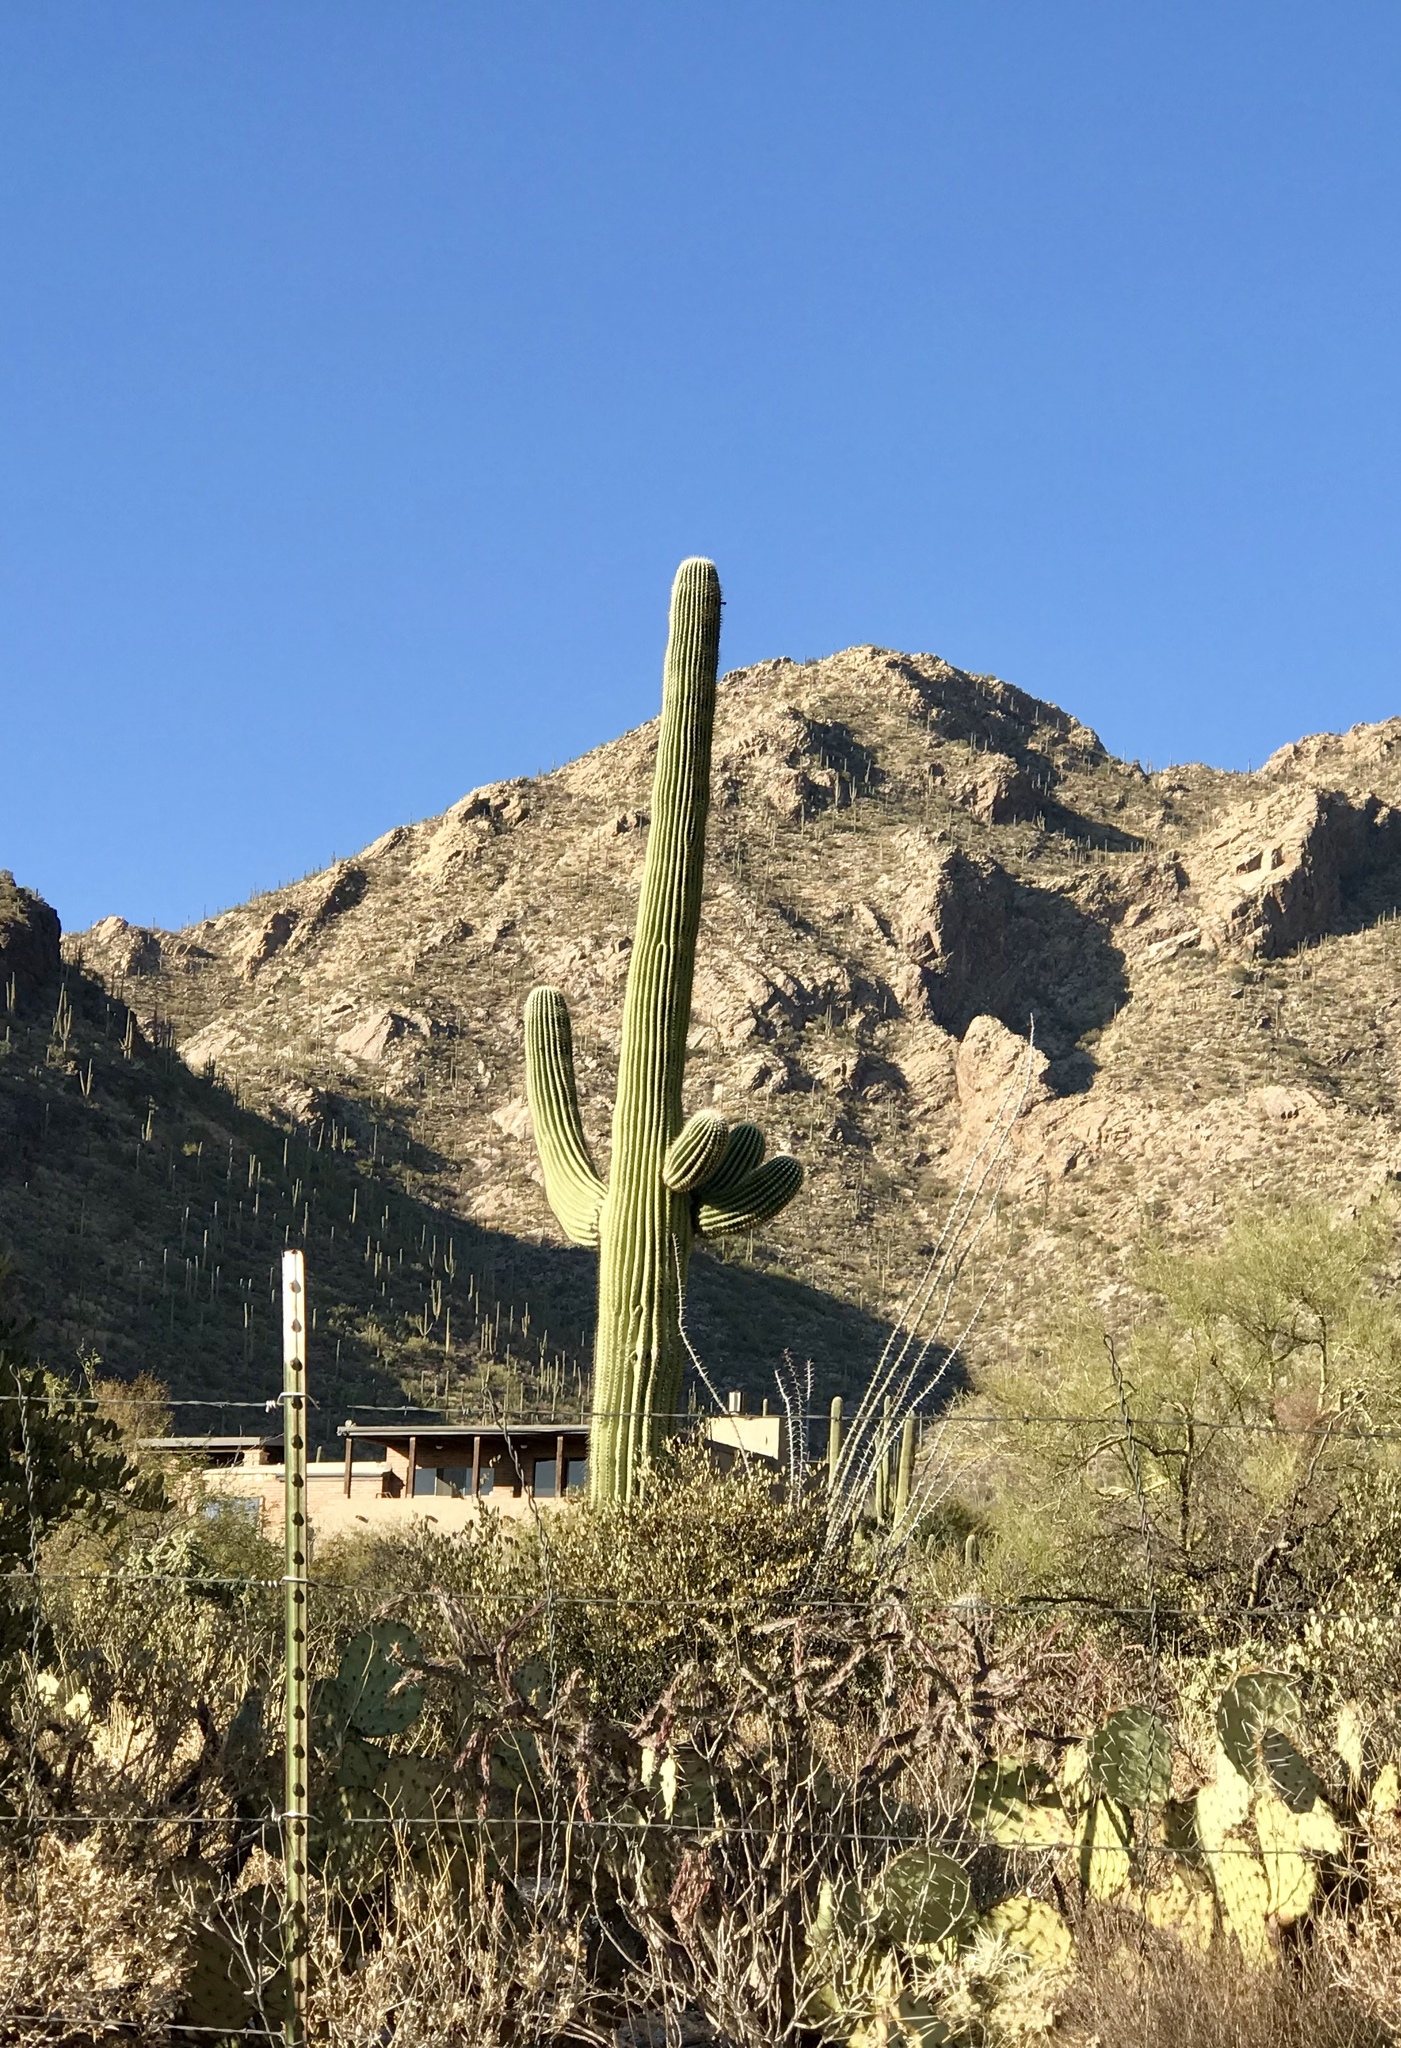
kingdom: Plantae
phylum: Tracheophyta
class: Magnoliopsida
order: Caryophyllales
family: Cactaceae
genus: Carnegiea
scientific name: Carnegiea gigantea
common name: Saguaro
